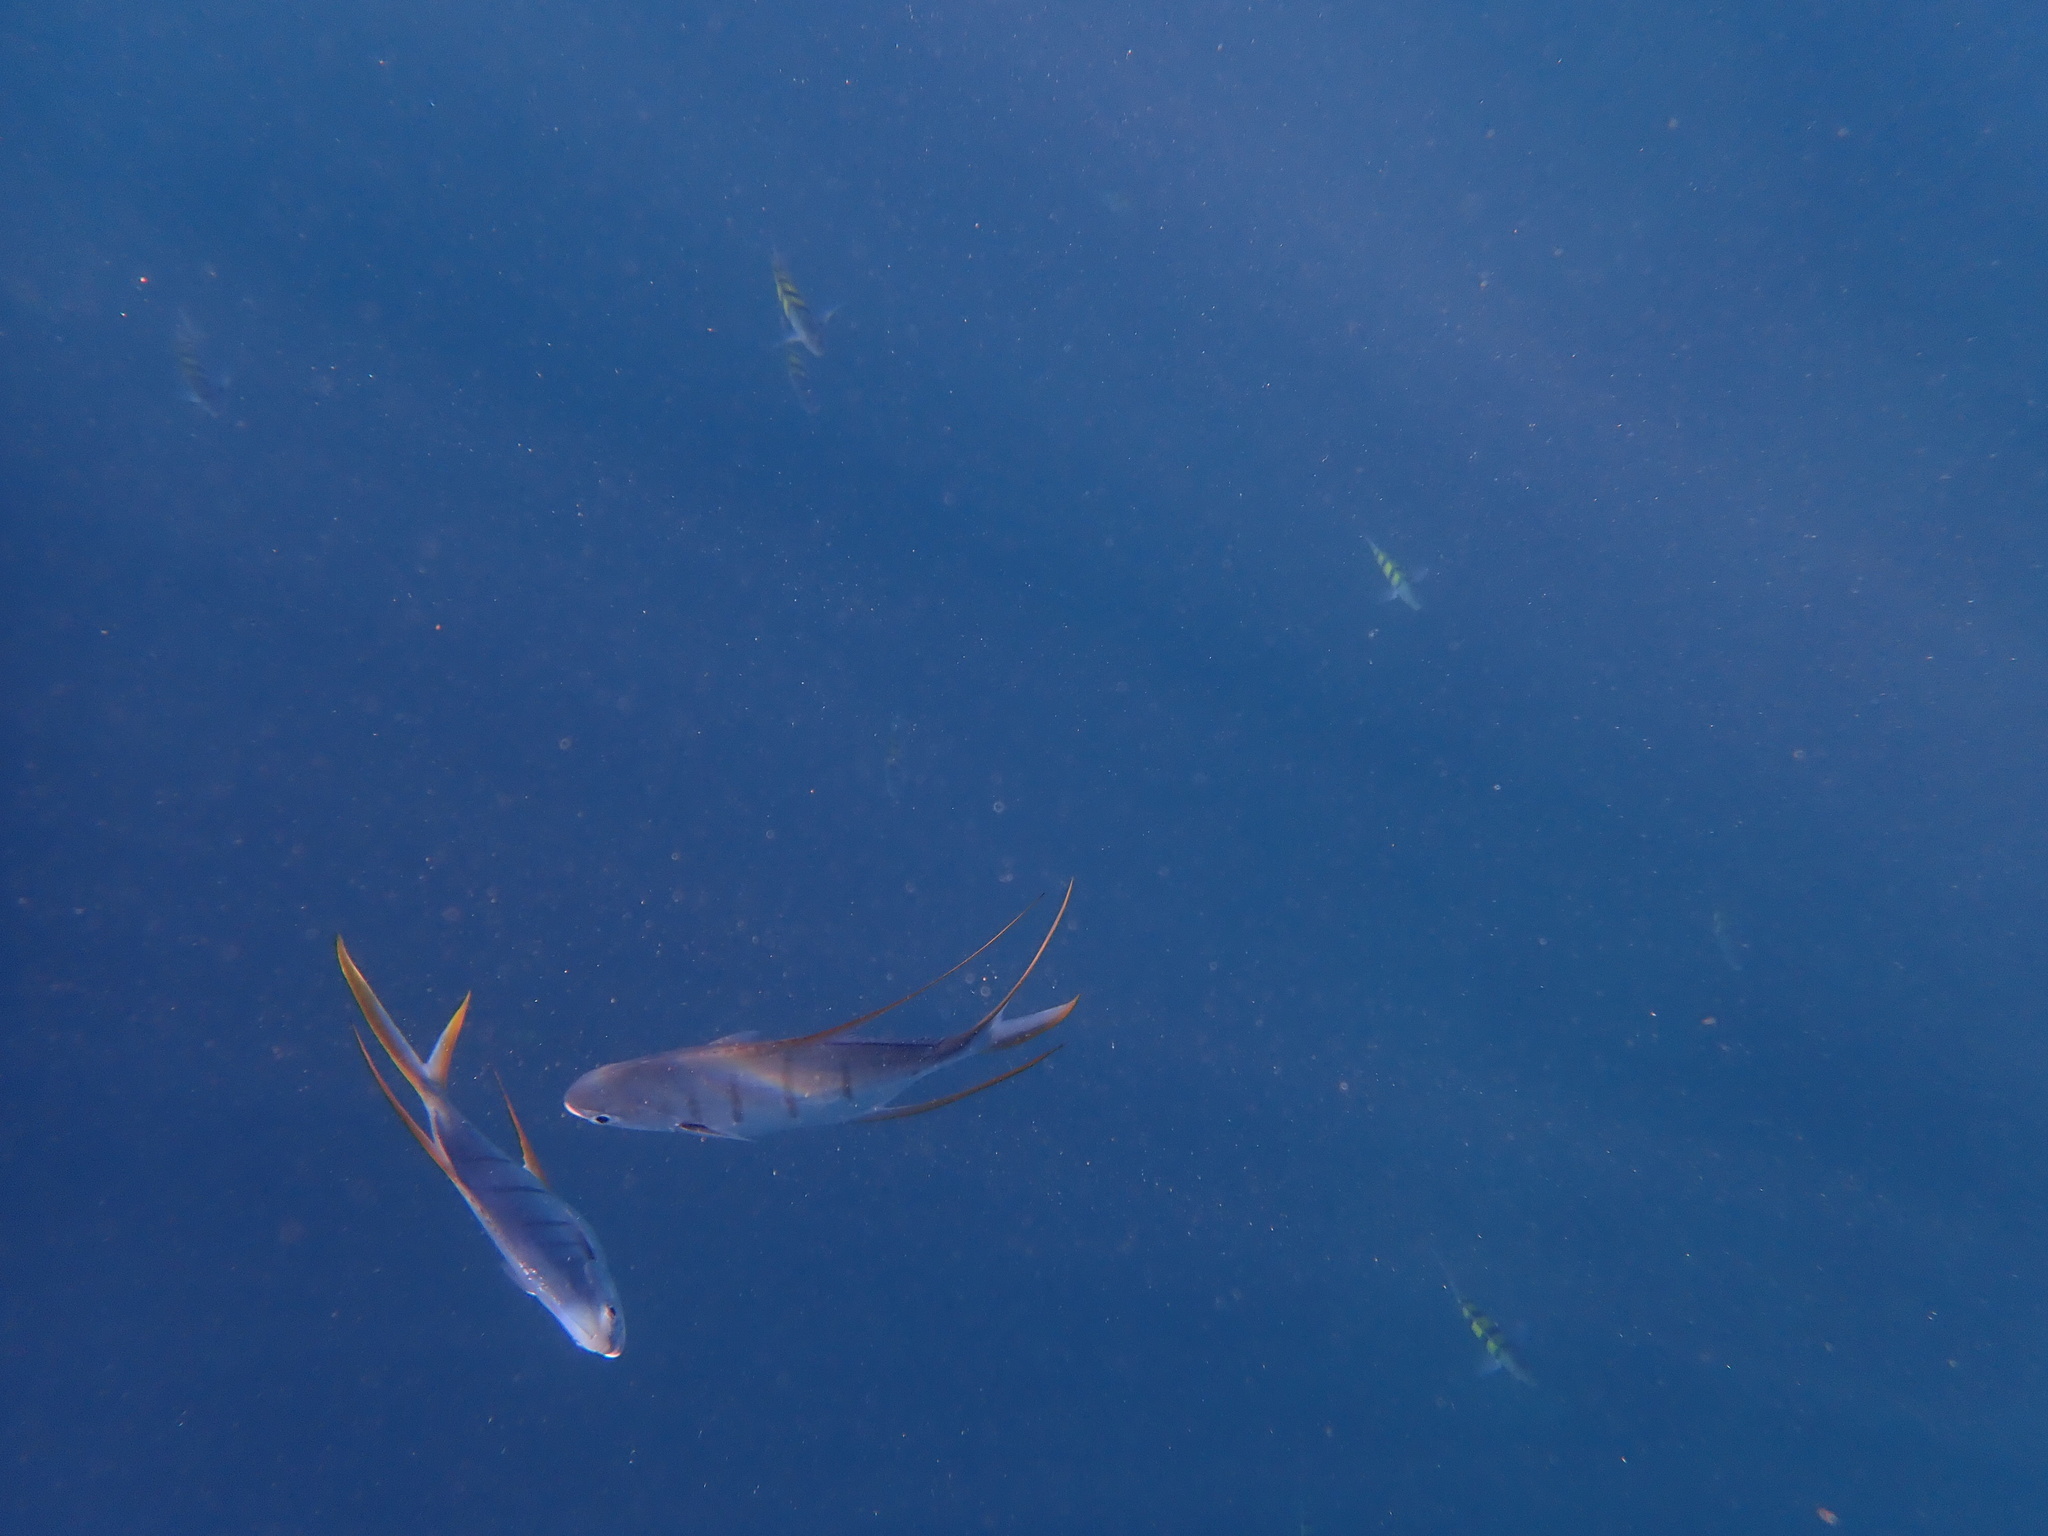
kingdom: Animalia
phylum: Chordata
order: Perciformes
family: Carangidae
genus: Trachinotus
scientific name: Trachinotus rhodopus
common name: Gafftopsail pompano
